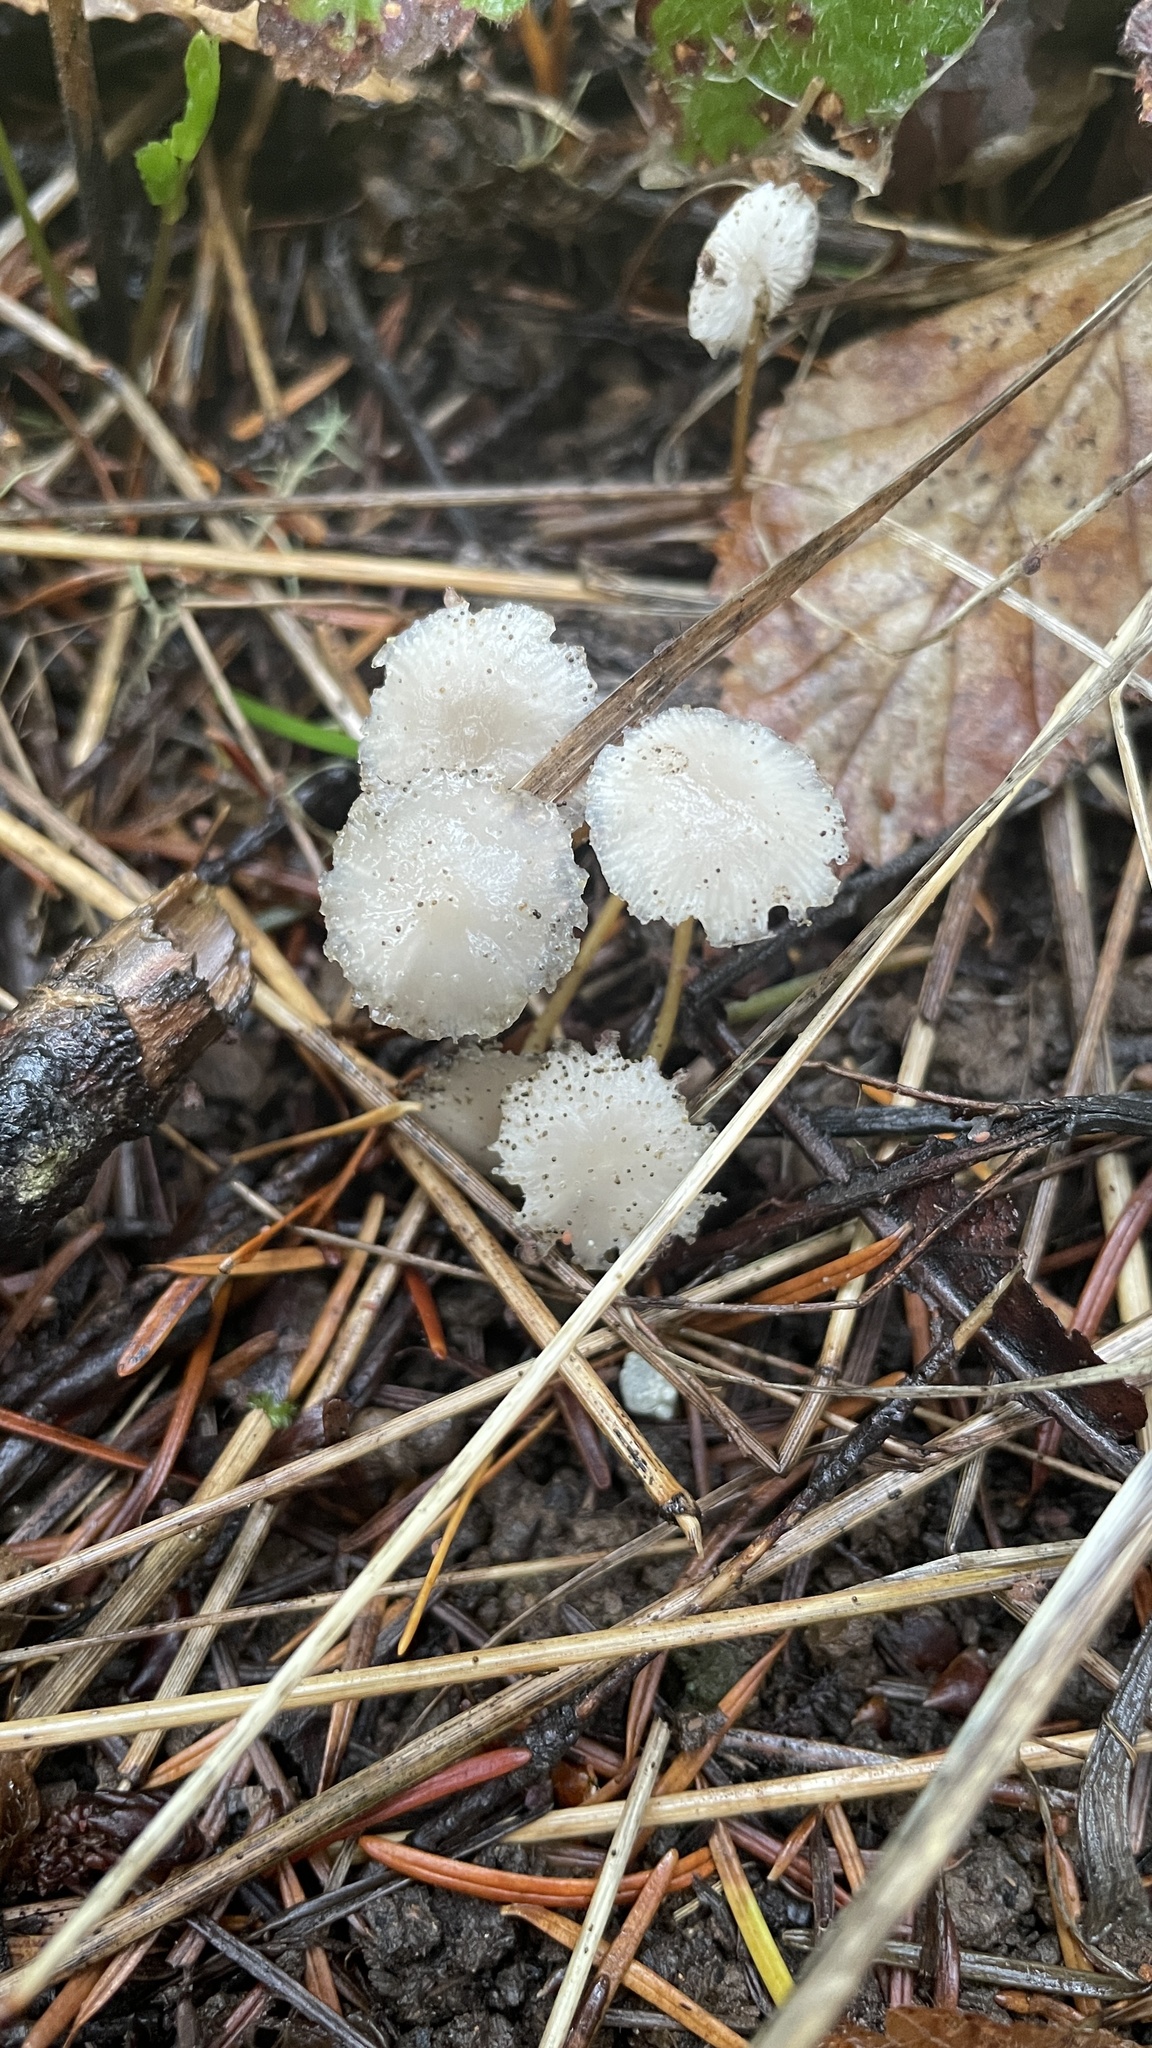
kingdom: Fungi
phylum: Basidiomycota
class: Agaricomycetes
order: Agaricales
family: Physalacriaceae
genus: Strobilurus
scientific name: Strobilurus trullisatus
